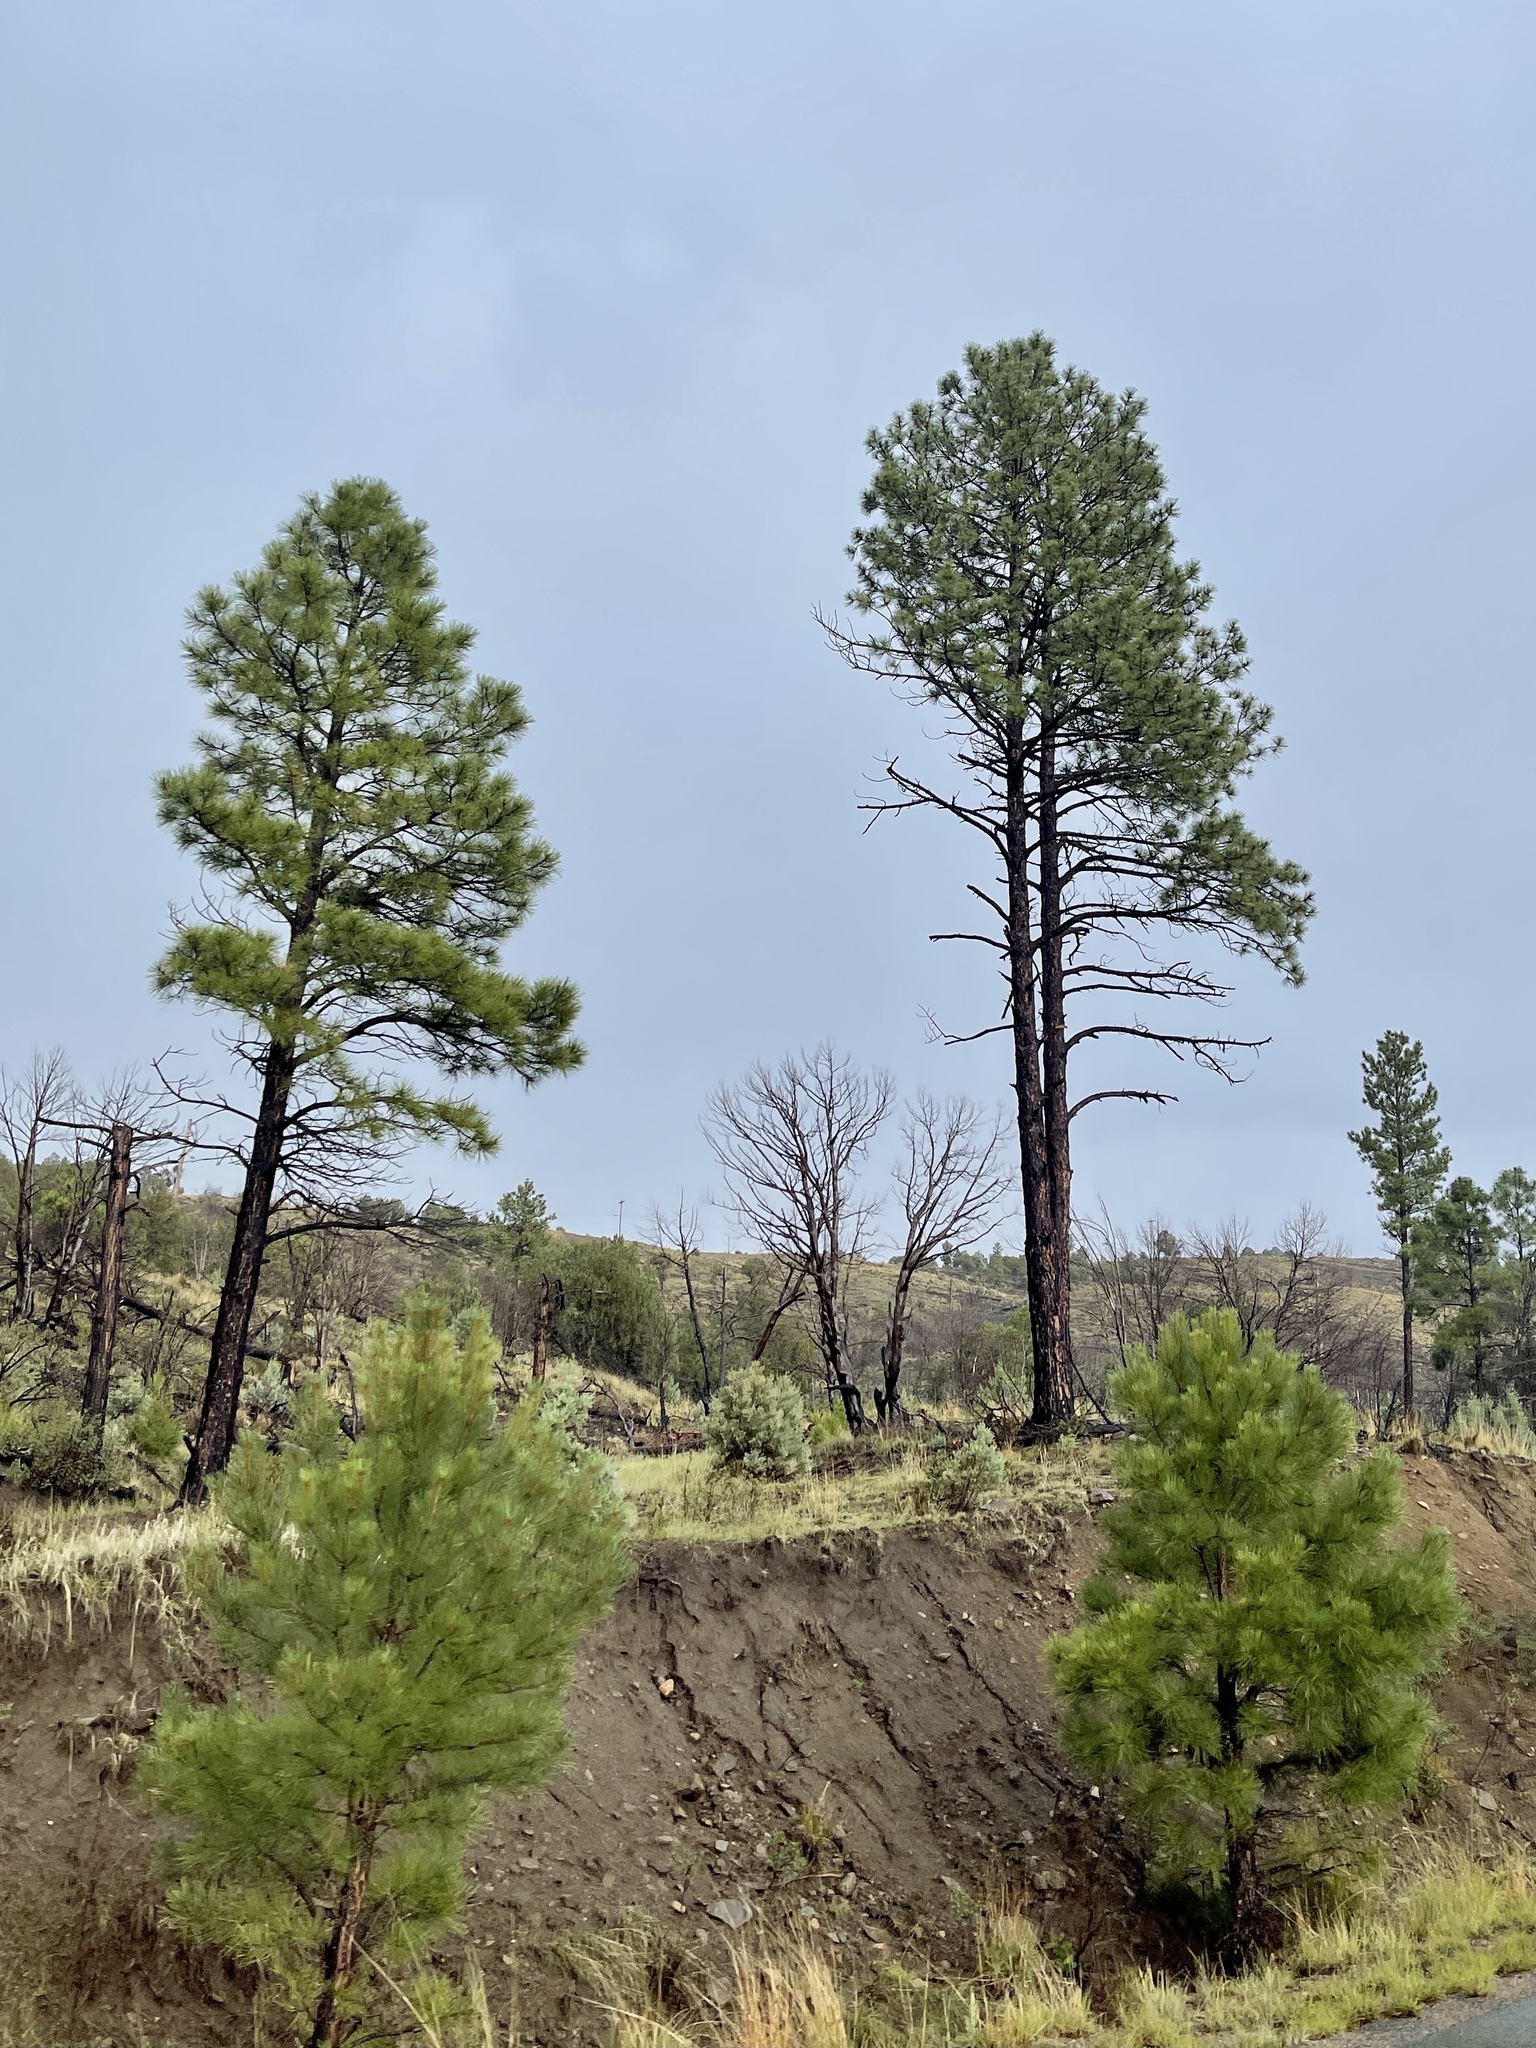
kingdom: Plantae
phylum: Tracheophyta
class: Pinopsida
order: Pinales
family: Pinaceae
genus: Pinus
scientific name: Pinus ponderosa
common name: Western yellow-pine
